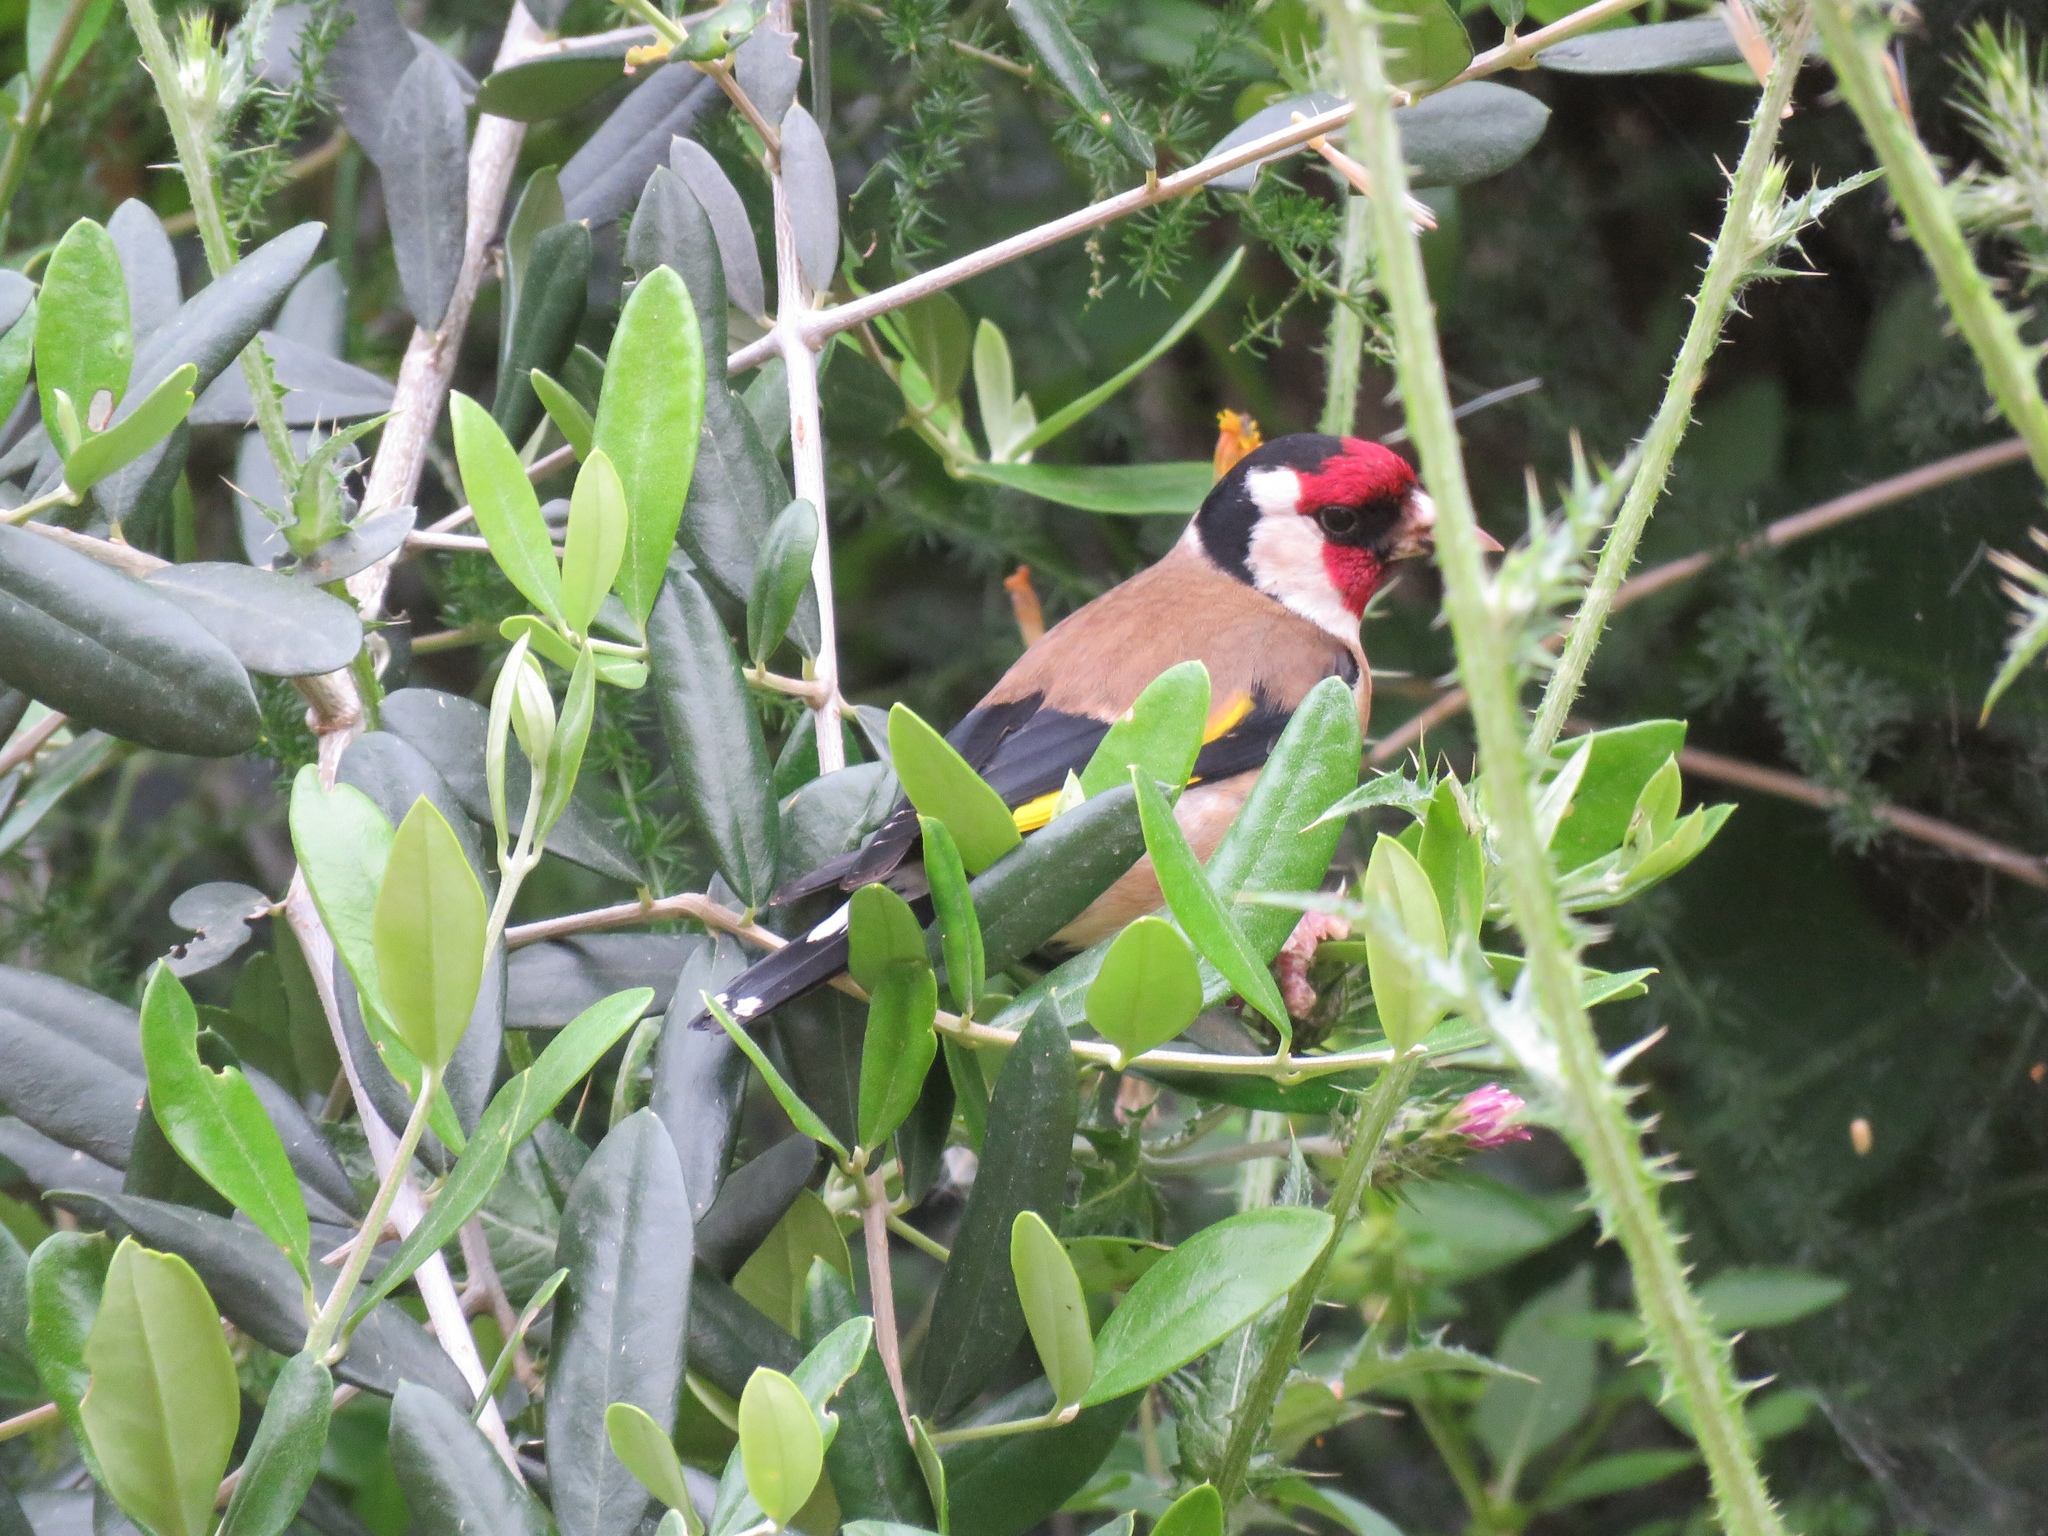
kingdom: Animalia
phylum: Chordata
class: Aves
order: Passeriformes
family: Fringillidae
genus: Carduelis
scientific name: Carduelis carduelis
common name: European goldfinch
